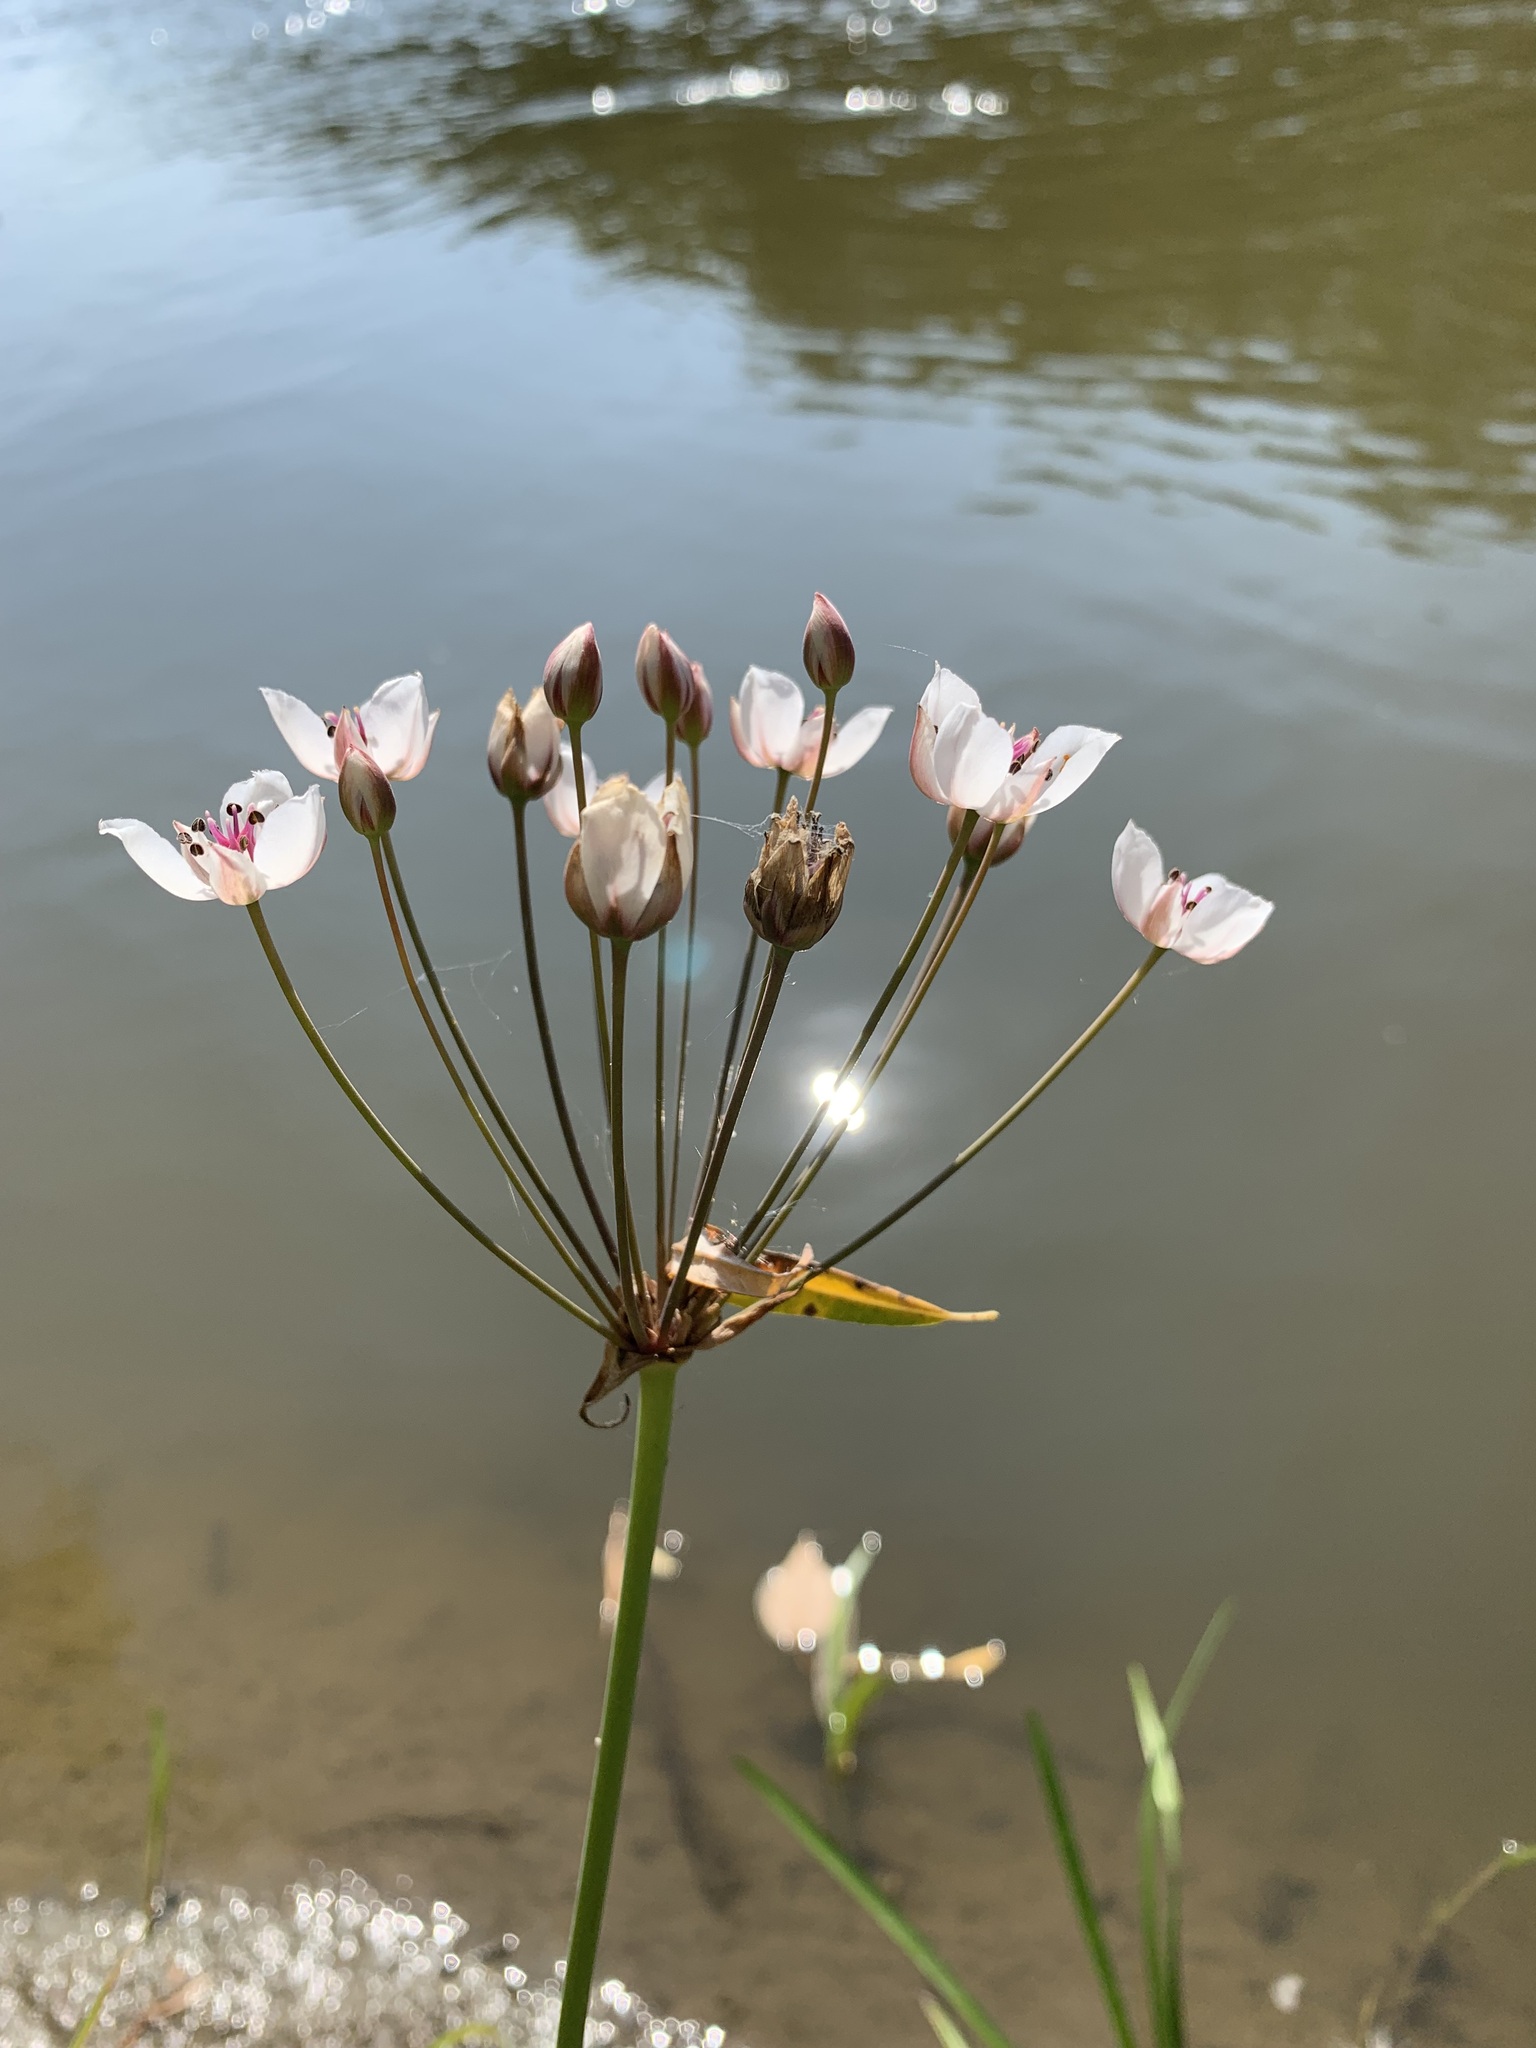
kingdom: Plantae
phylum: Tracheophyta
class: Liliopsida
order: Alismatales
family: Butomaceae
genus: Butomus
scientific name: Butomus umbellatus
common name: Flowering-rush
